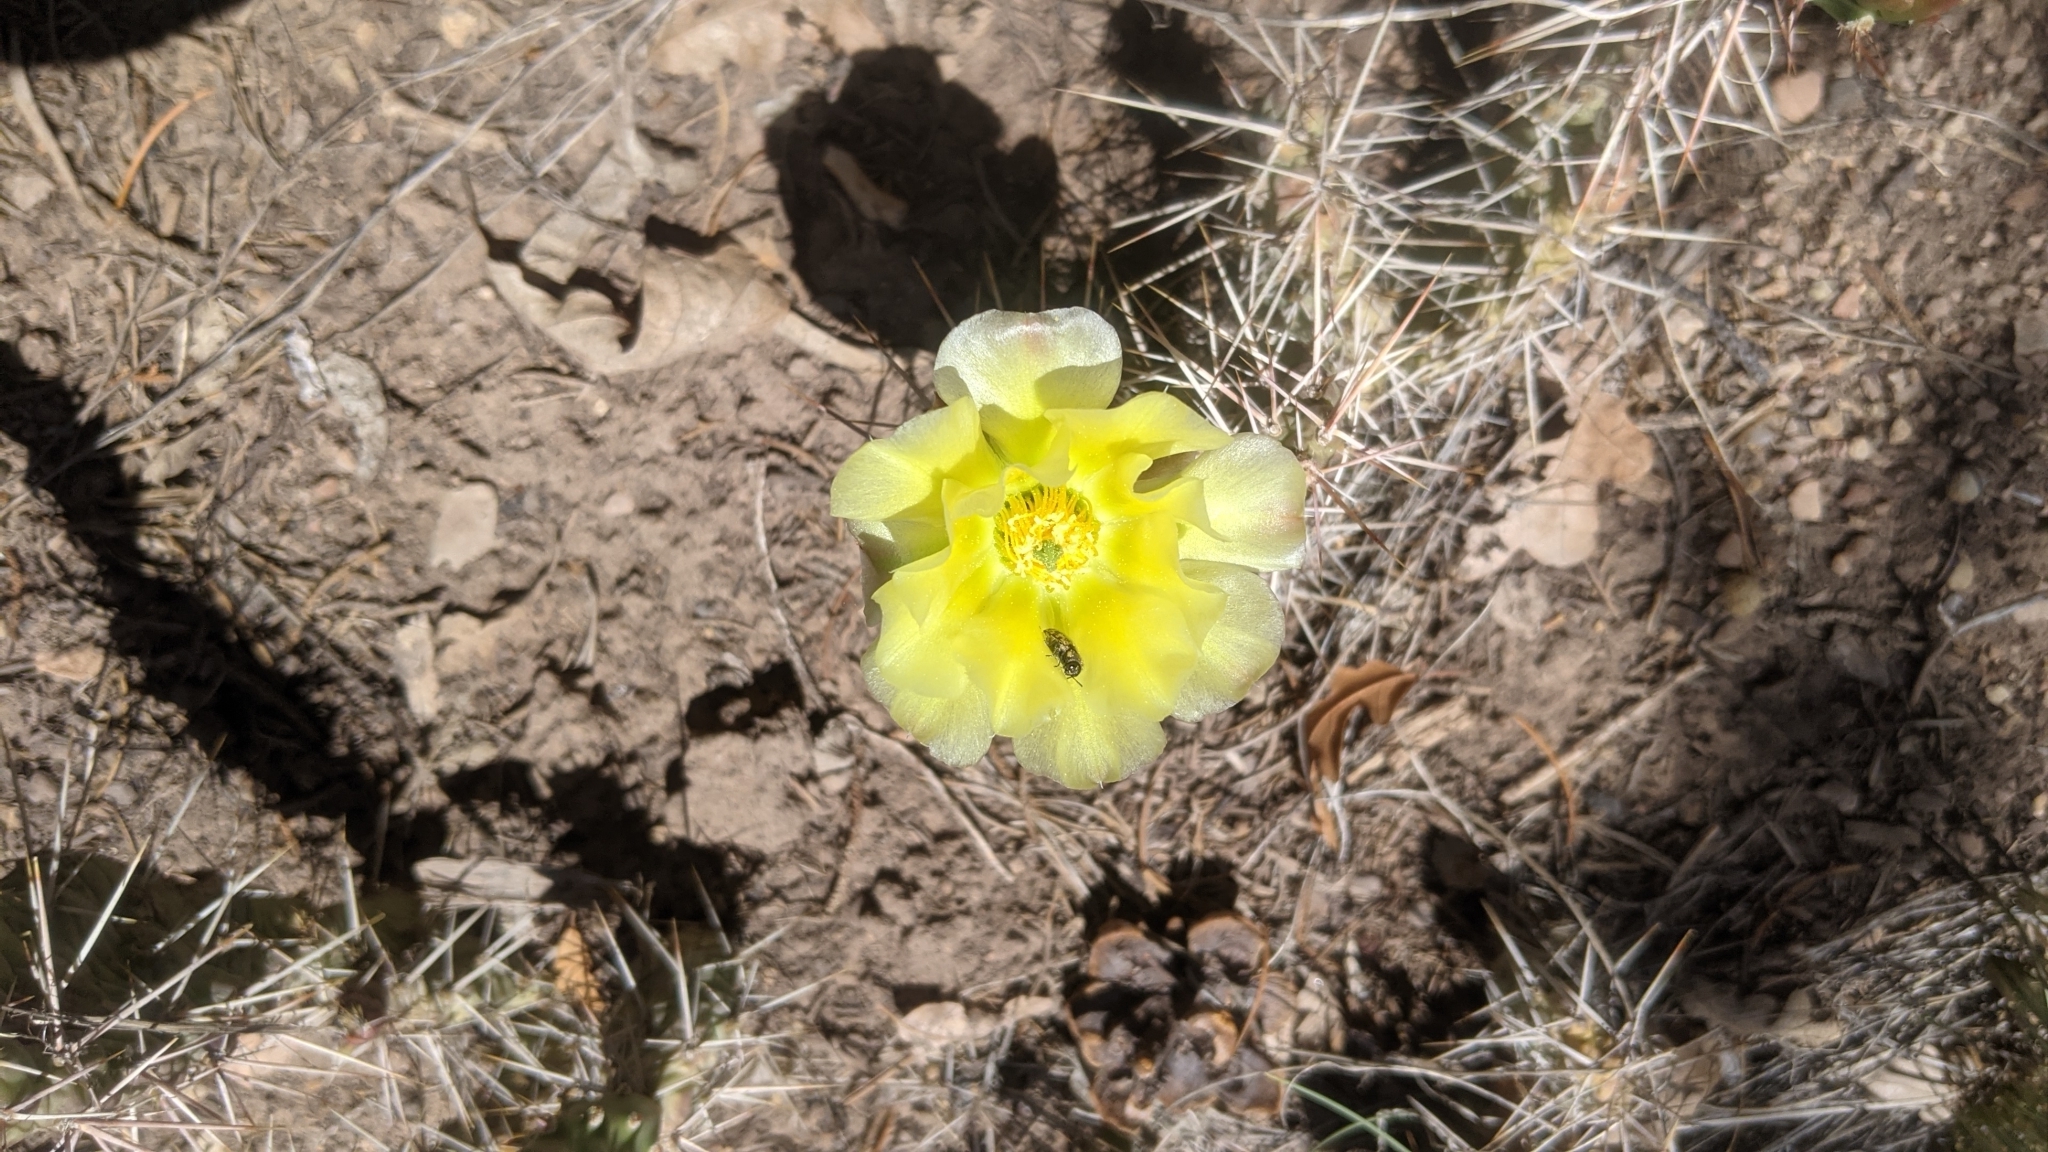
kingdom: Plantae
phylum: Tracheophyta
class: Magnoliopsida
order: Caryophyllales
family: Cactaceae
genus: Opuntia
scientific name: Opuntia polyacantha
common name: Plains prickly-pear
